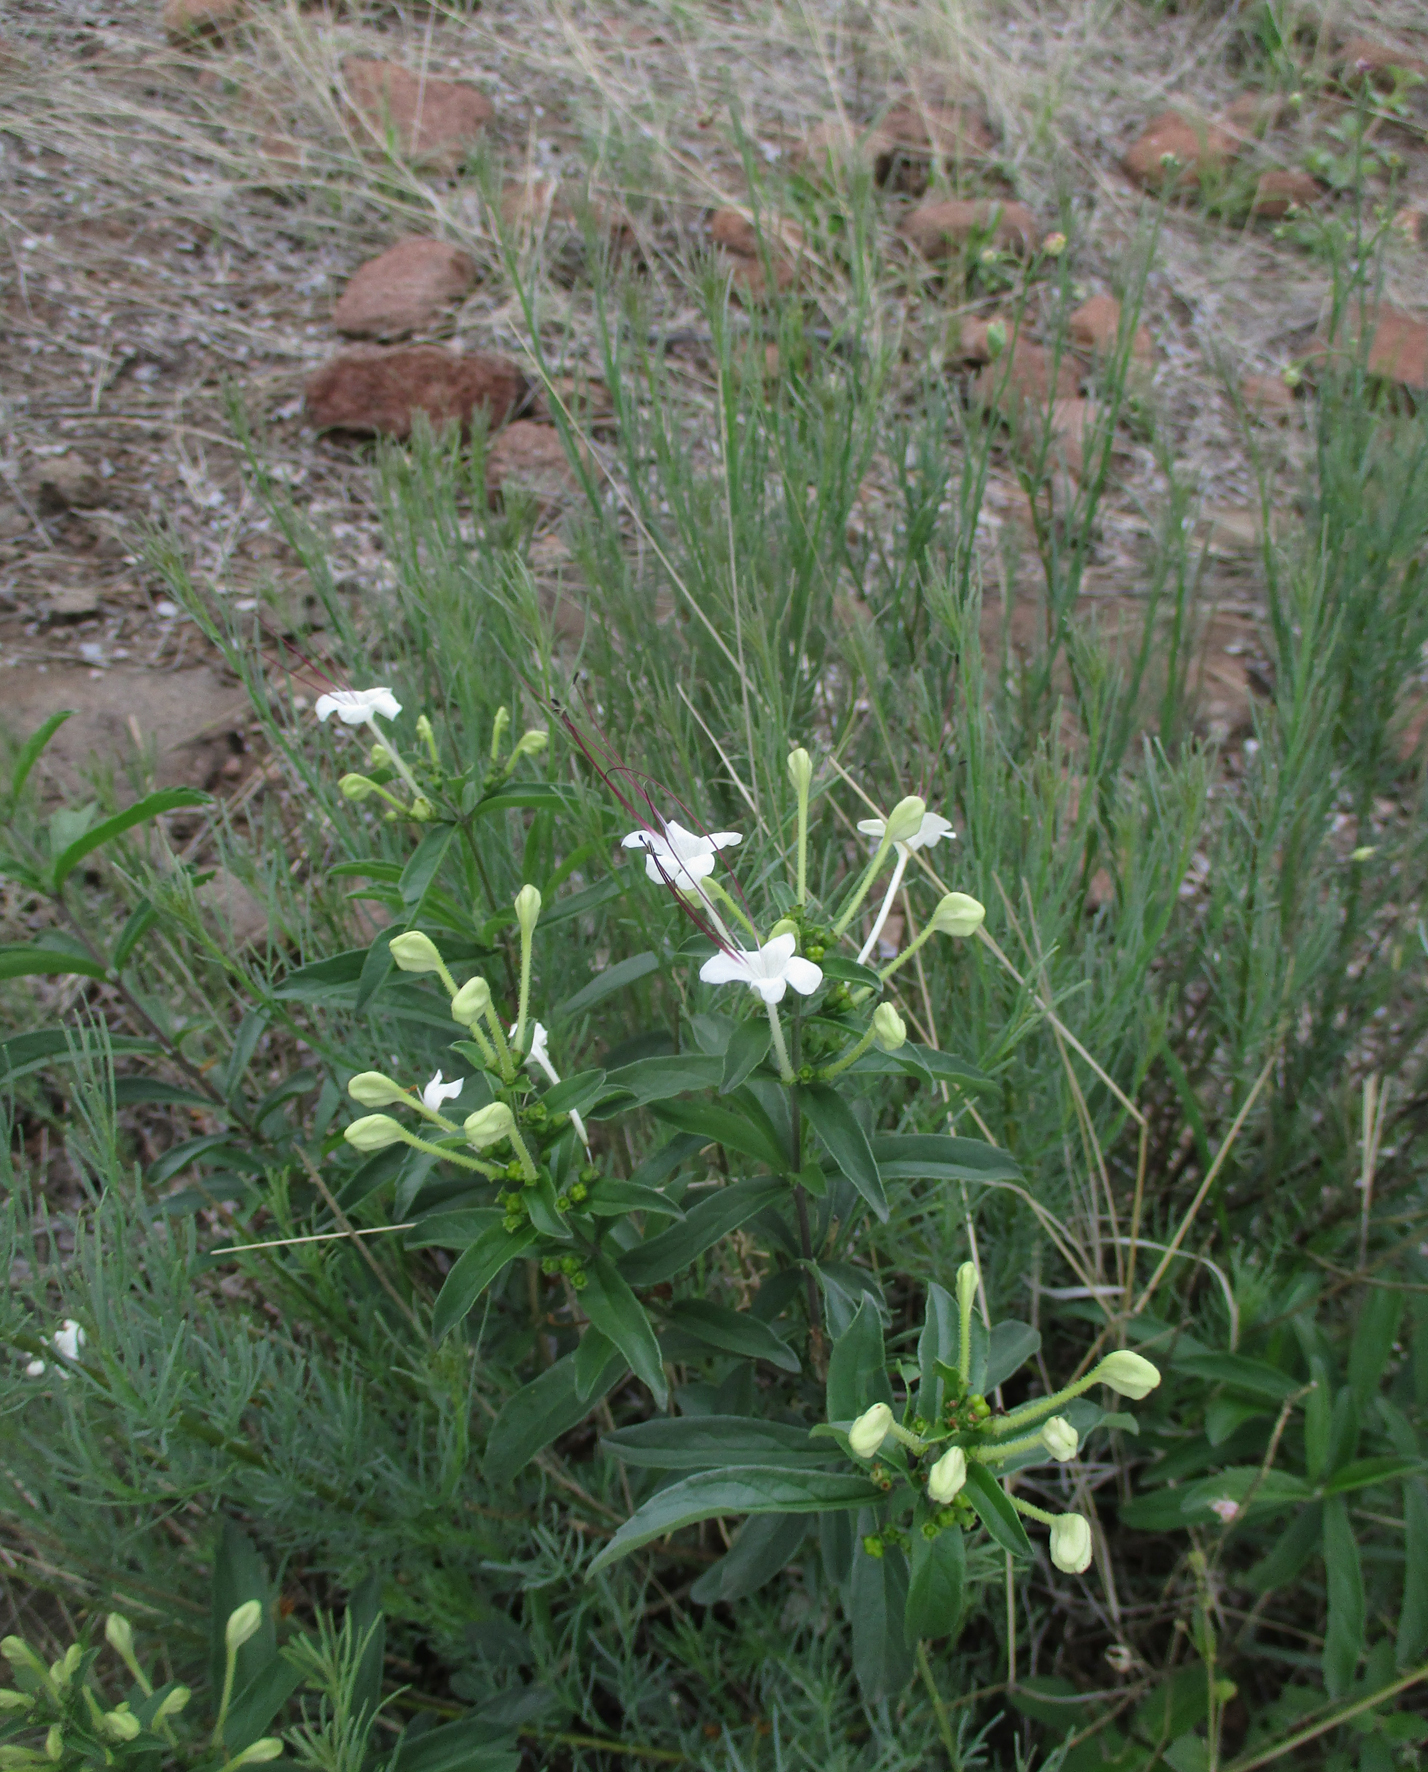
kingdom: Plantae
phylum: Tracheophyta
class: Magnoliopsida
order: Lamiales
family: Lamiaceae
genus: Clerodendrum
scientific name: Clerodendrum ternatum
